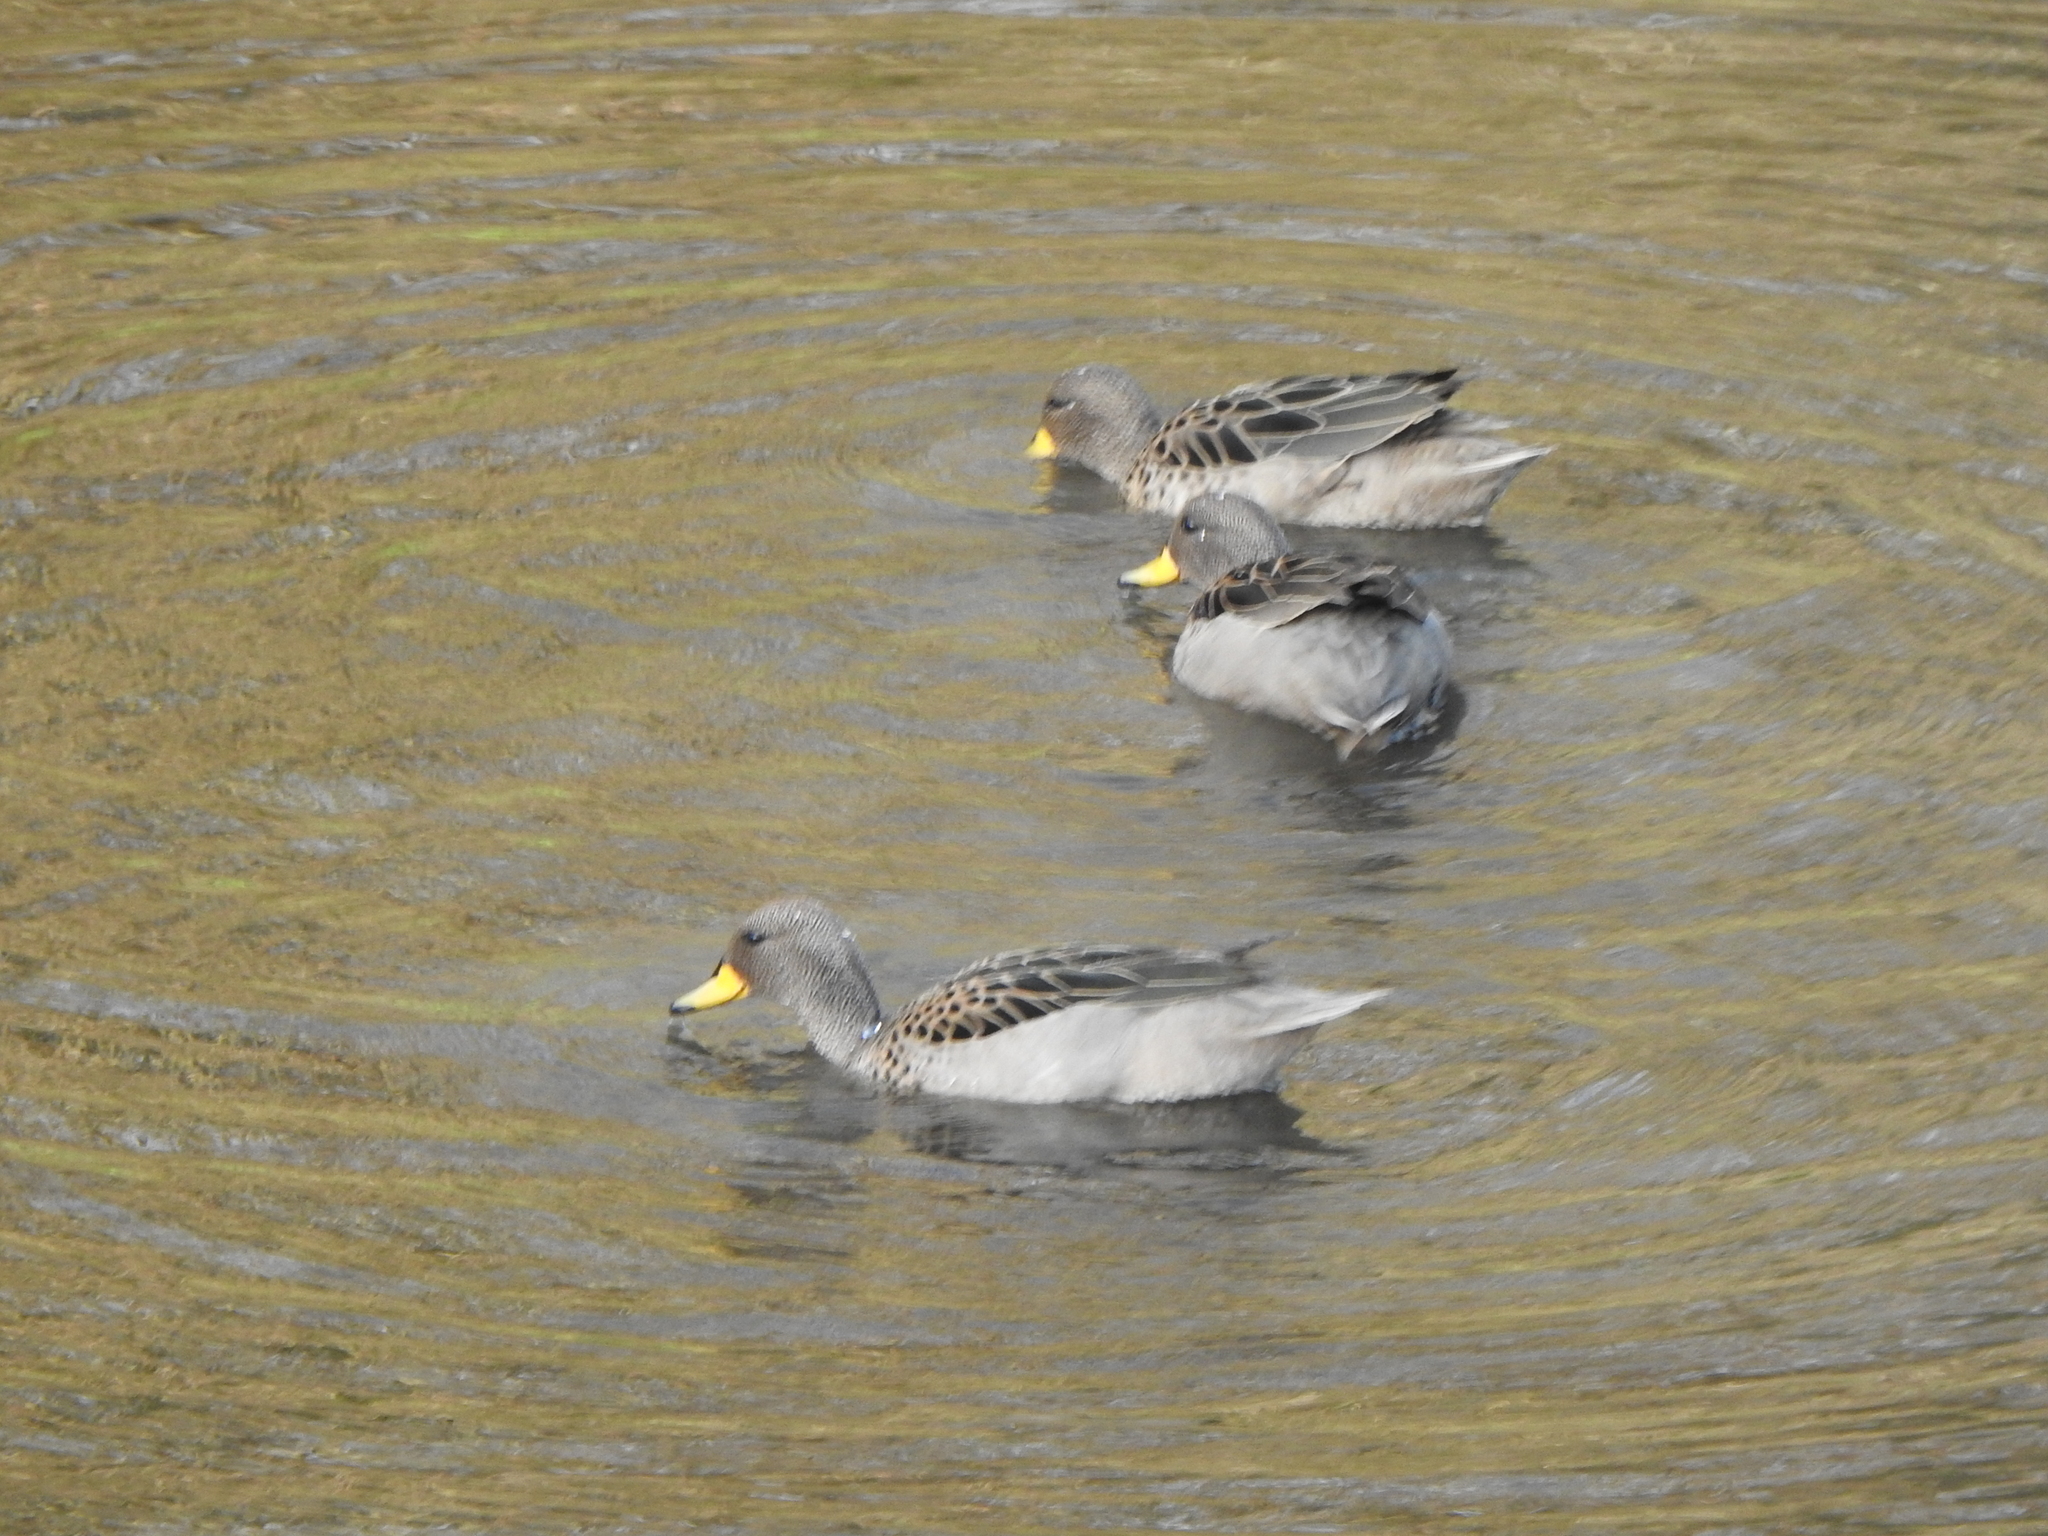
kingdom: Animalia
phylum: Chordata
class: Aves
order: Anseriformes
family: Anatidae
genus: Anas
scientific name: Anas flavirostris
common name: Yellow-billed teal
